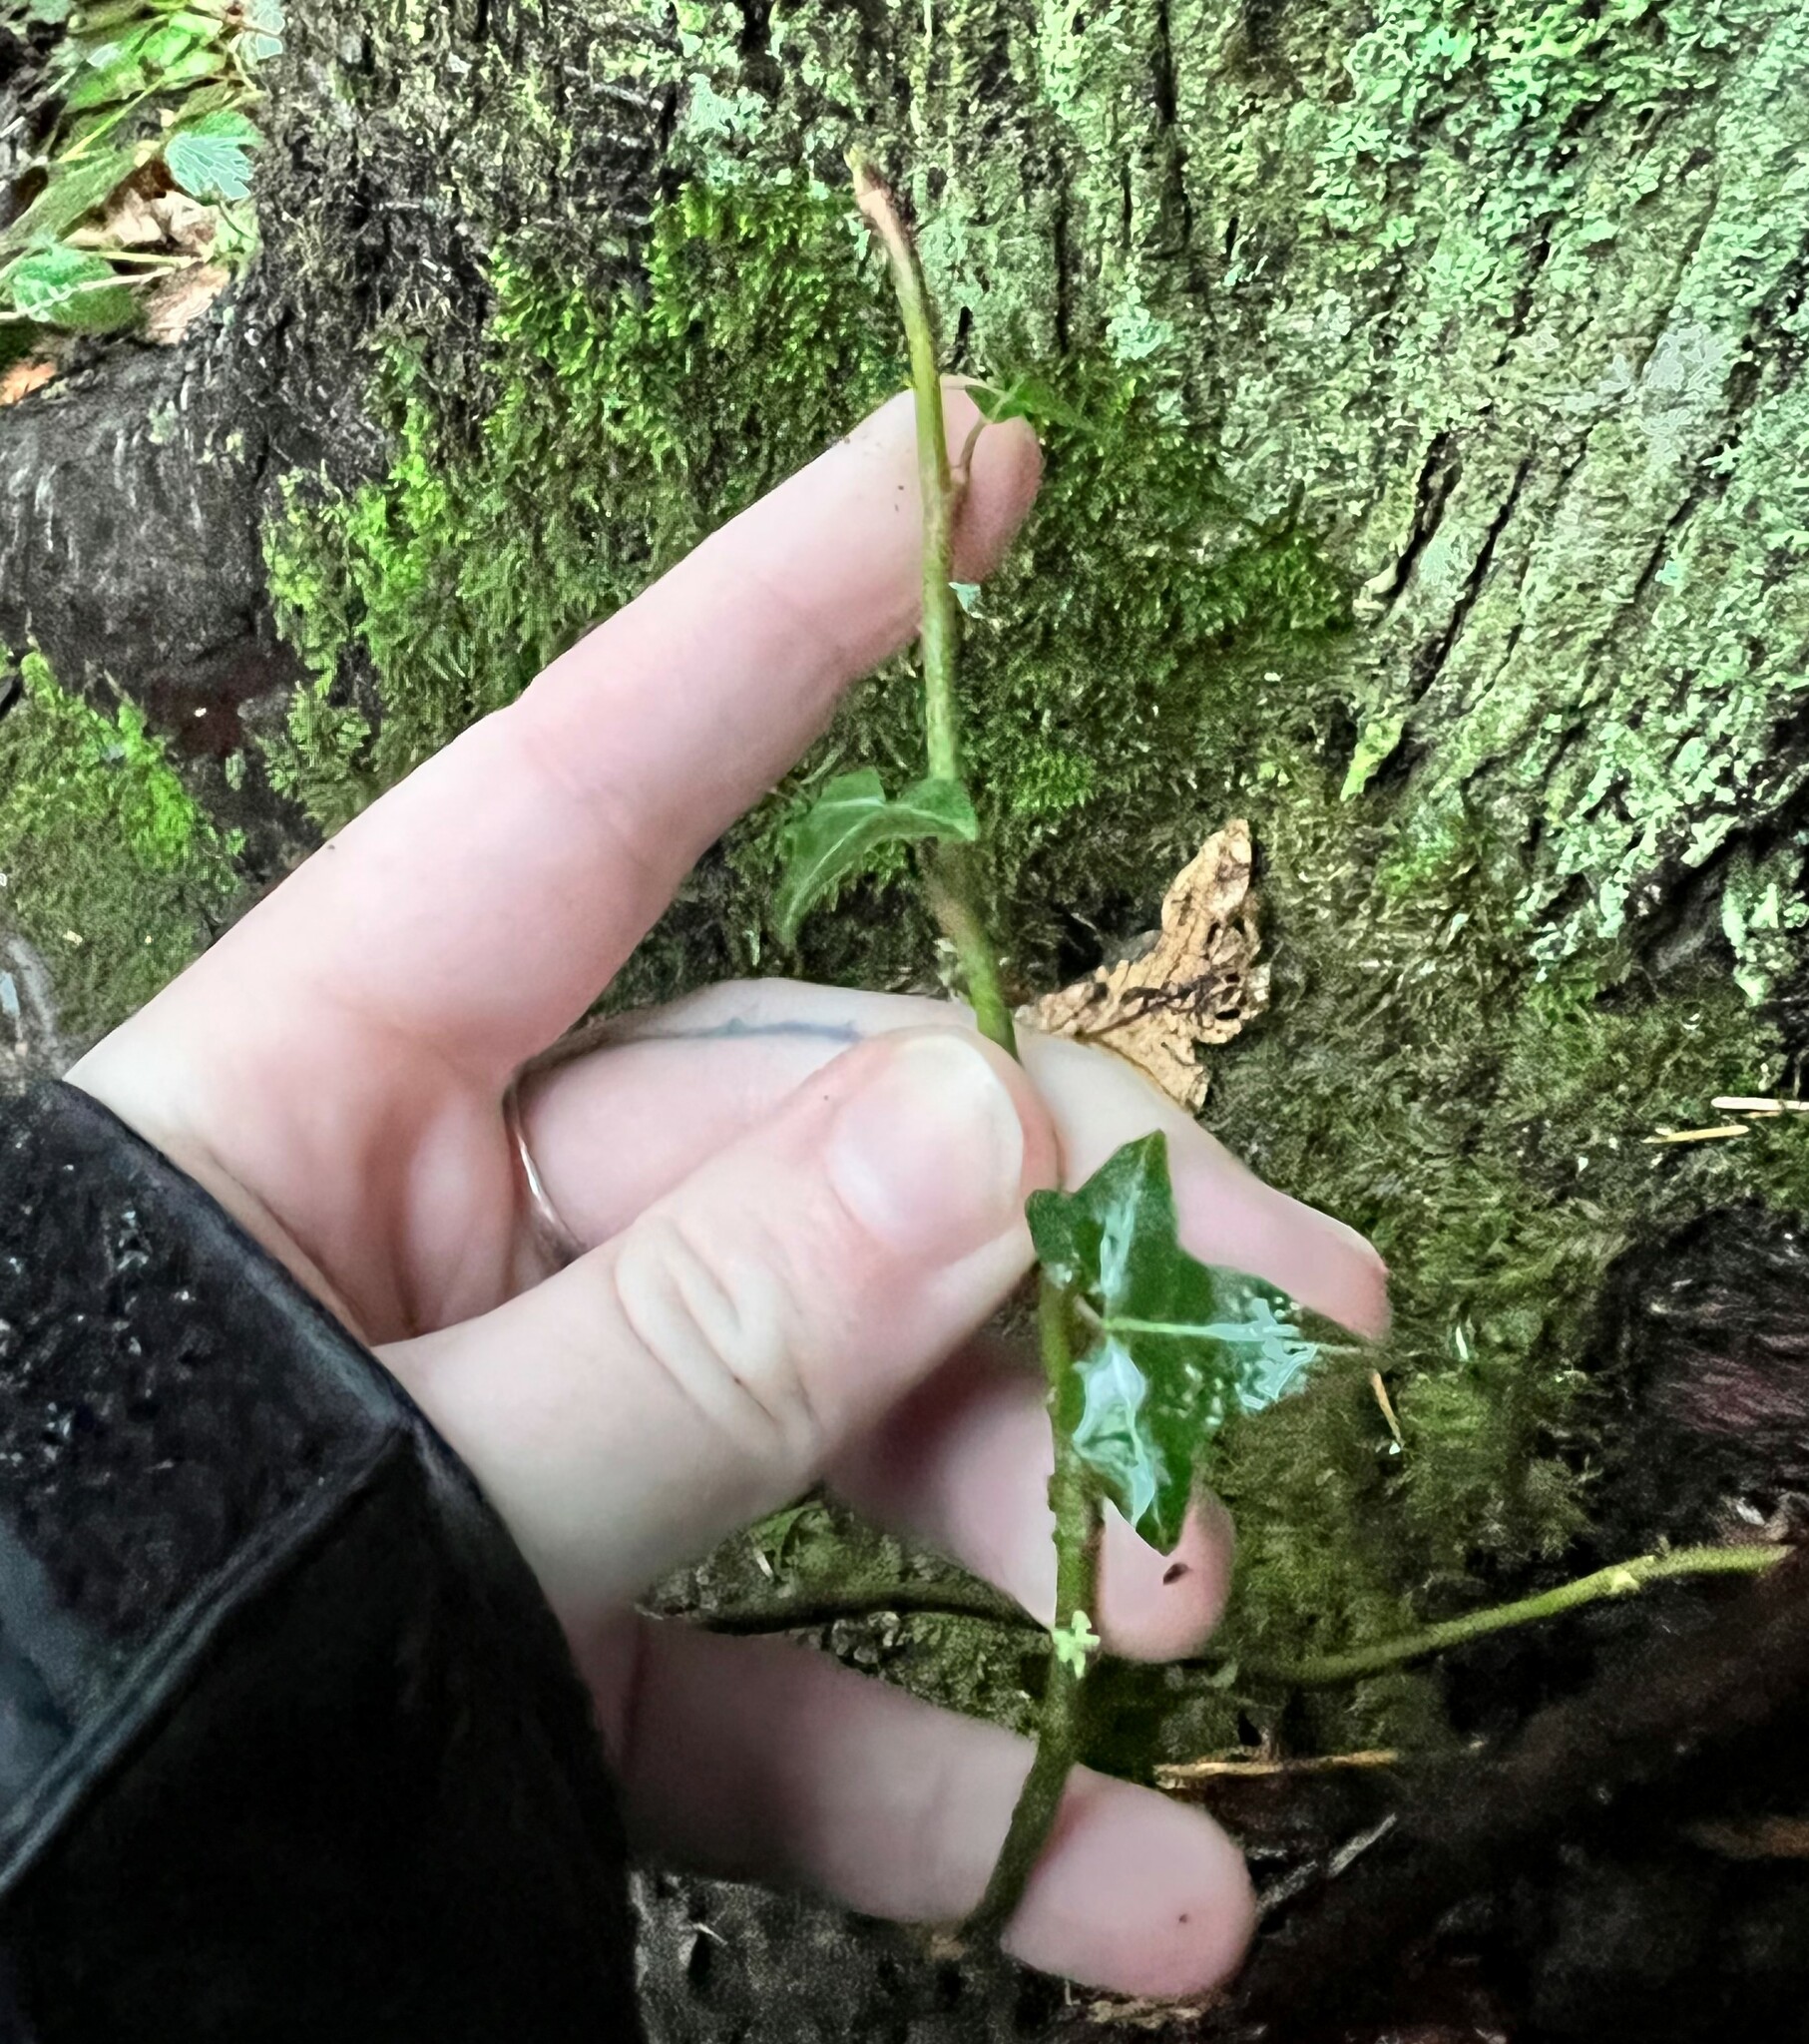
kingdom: Plantae
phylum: Tracheophyta
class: Magnoliopsida
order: Apiales
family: Araliaceae
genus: Hedera
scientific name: Hedera helix
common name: Ivy
